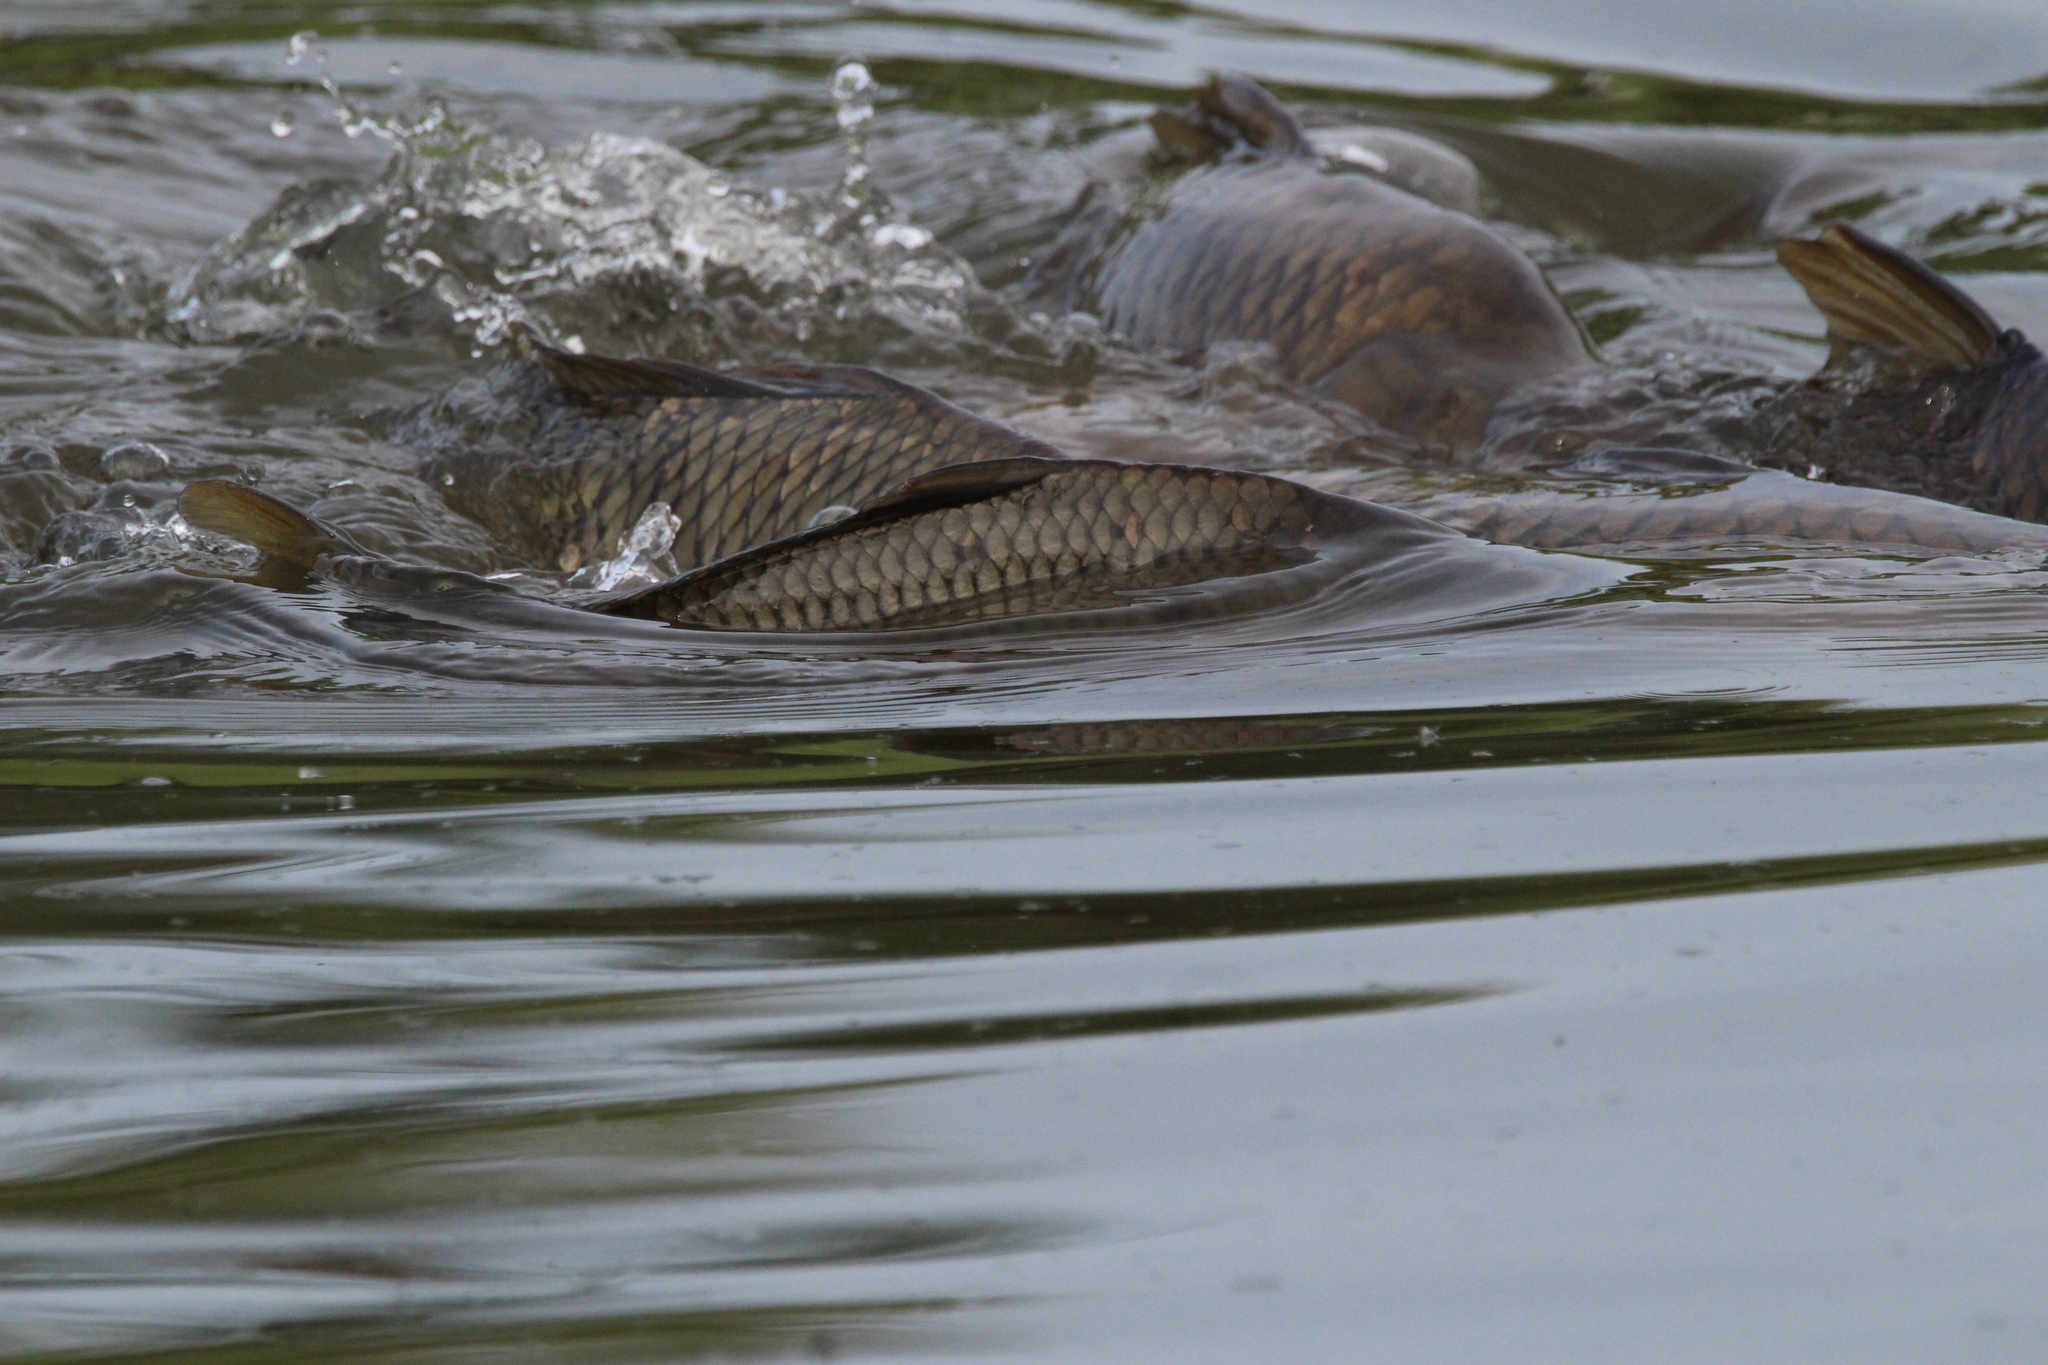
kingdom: Animalia
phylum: Chordata
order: Cypriniformes
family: Cyprinidae
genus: Cyprinus
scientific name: Cyprinus carpio
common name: Common carp
